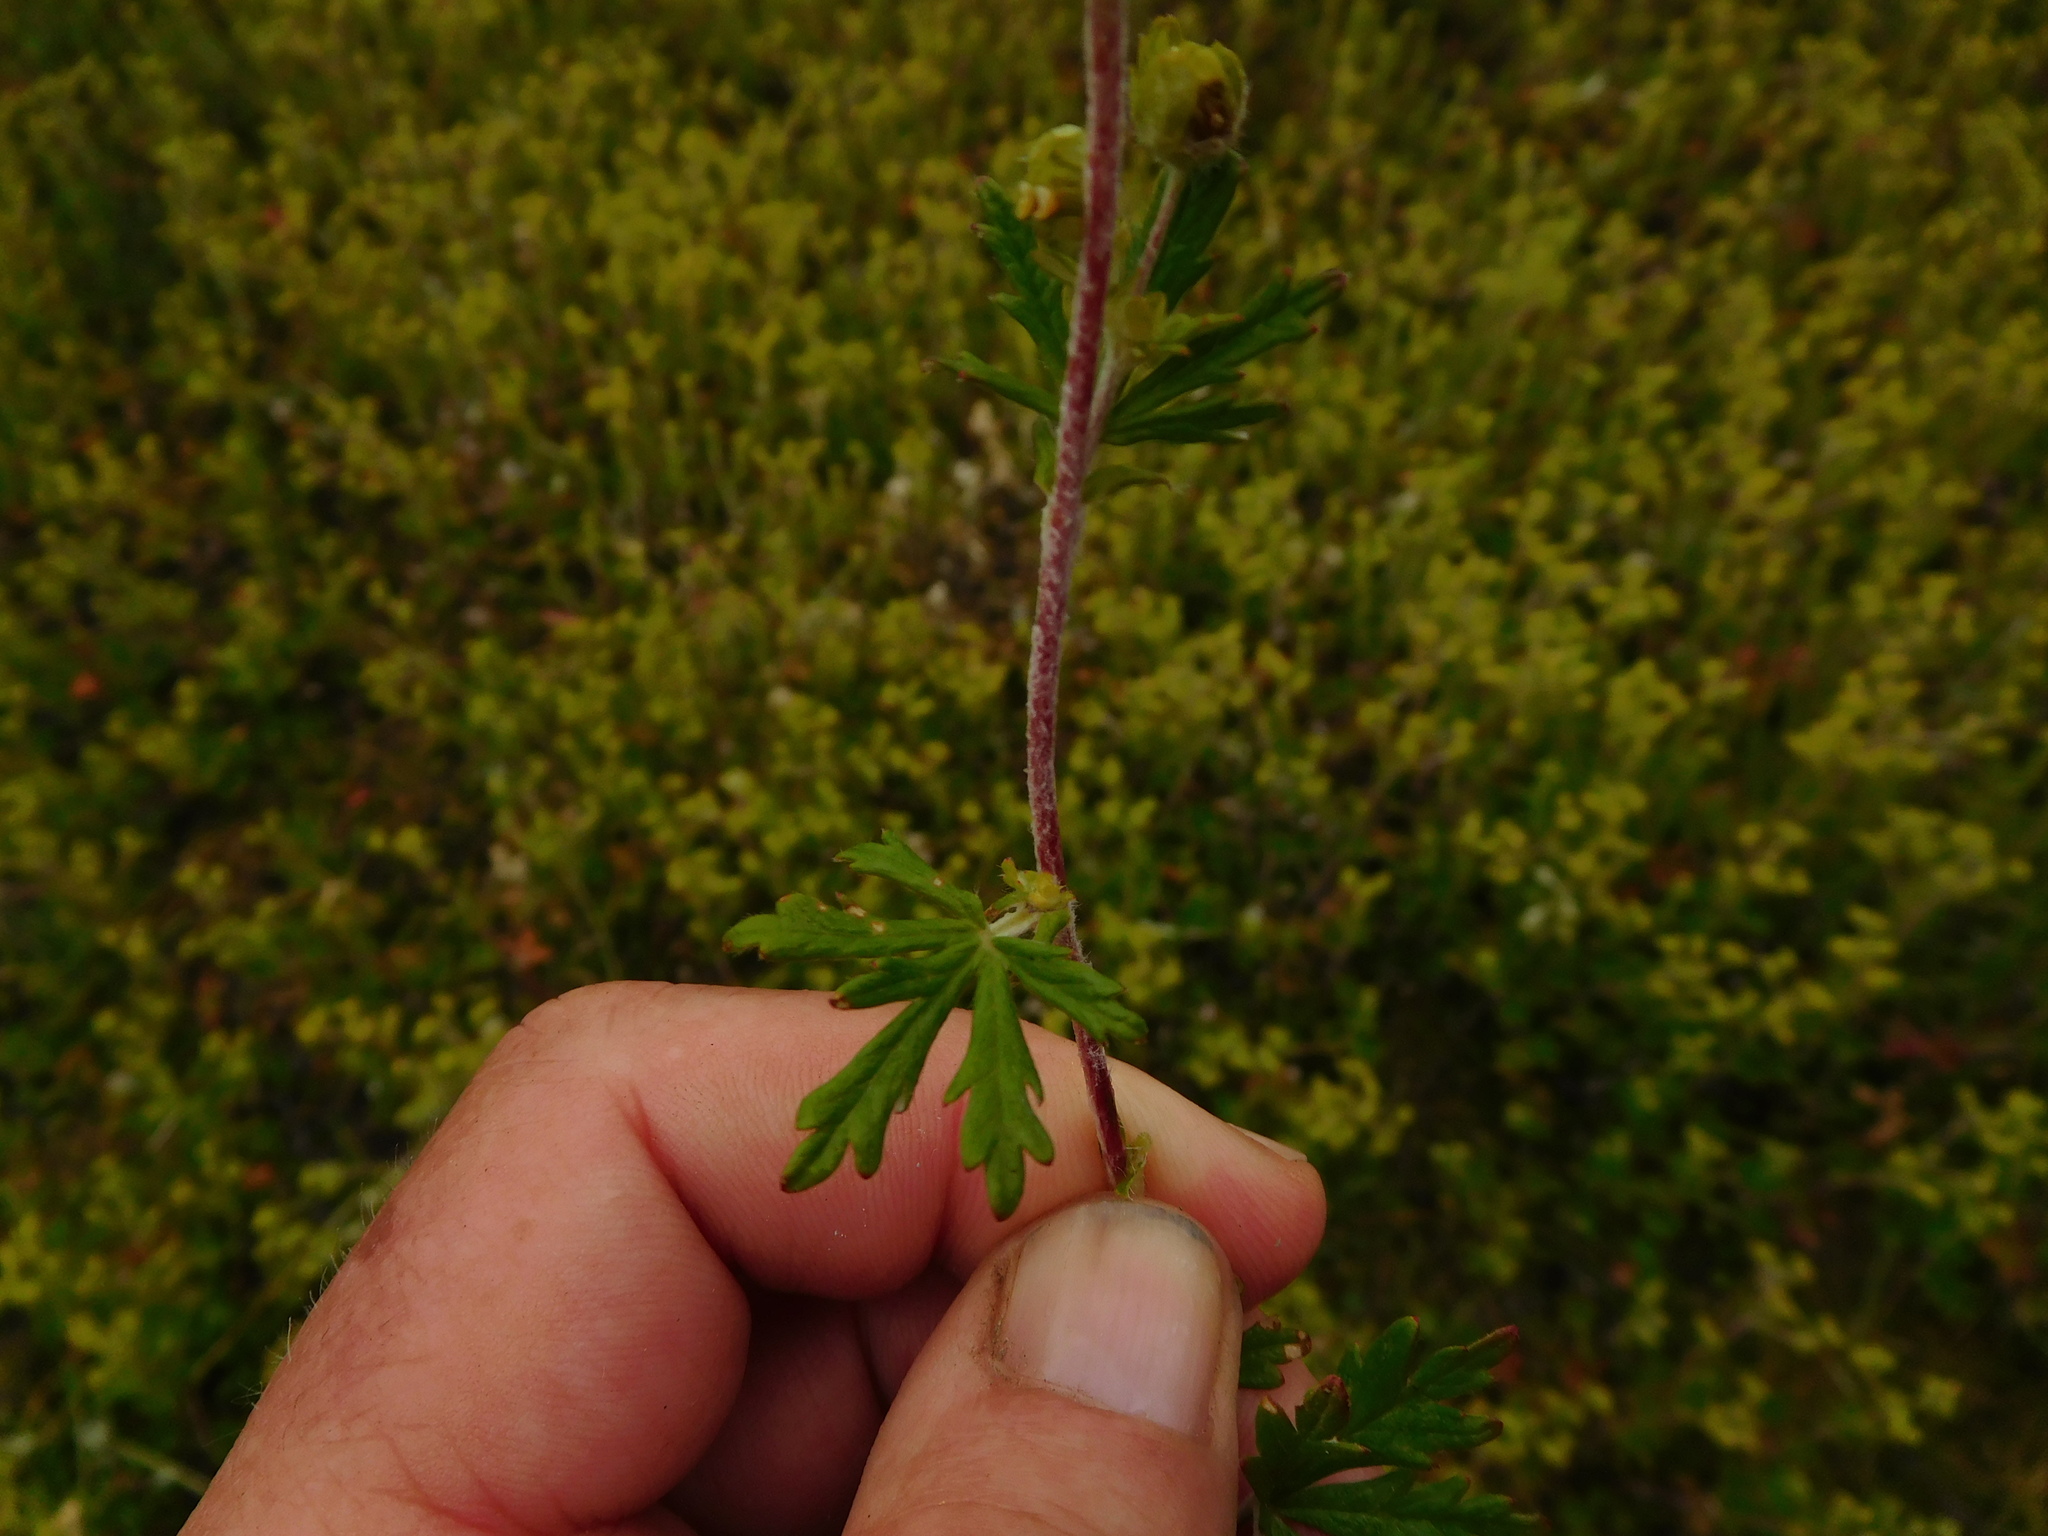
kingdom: Plantae
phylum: Tracheophyta
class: Magnoliopsida
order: Rosales
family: Rosaceae
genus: Potentilla
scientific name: Potentilla argentea
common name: Hoary cinquefoil
